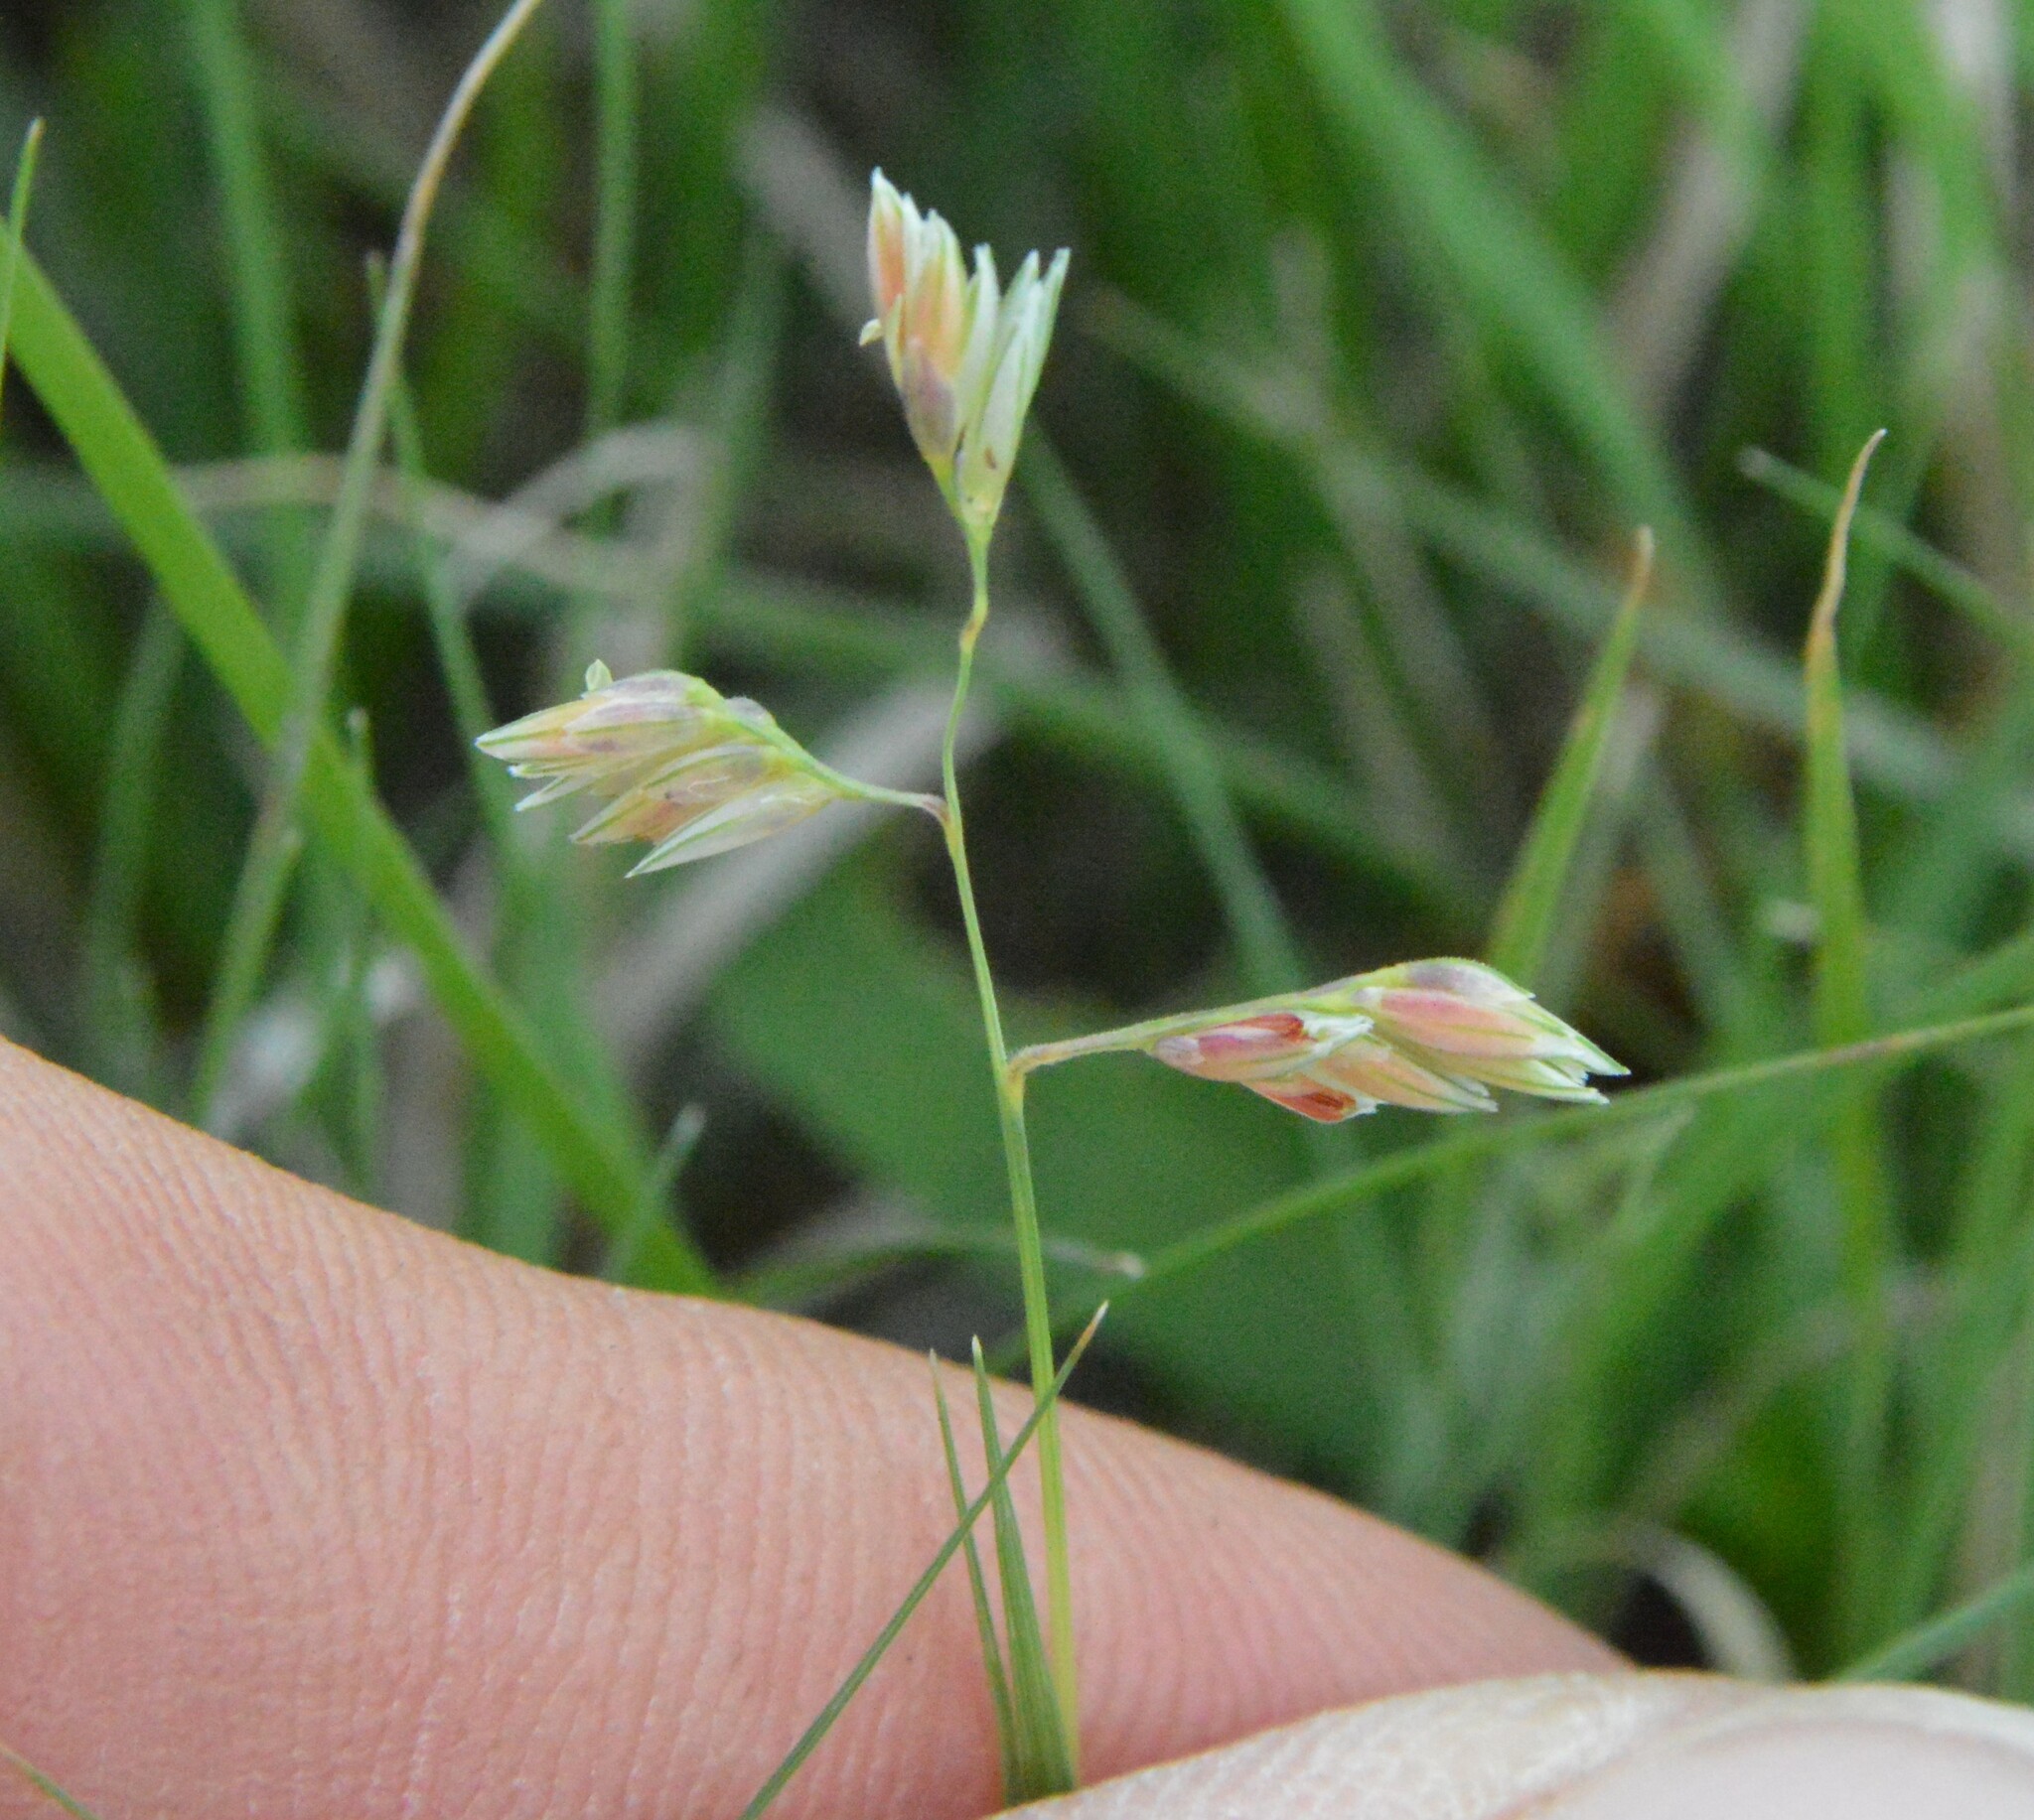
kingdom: Plantae
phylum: Tracheophyta
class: Liliopsida
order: Poales
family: Poaceae
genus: Bouteloua
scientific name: Bouteloua dactyloides
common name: Buffalo grass
